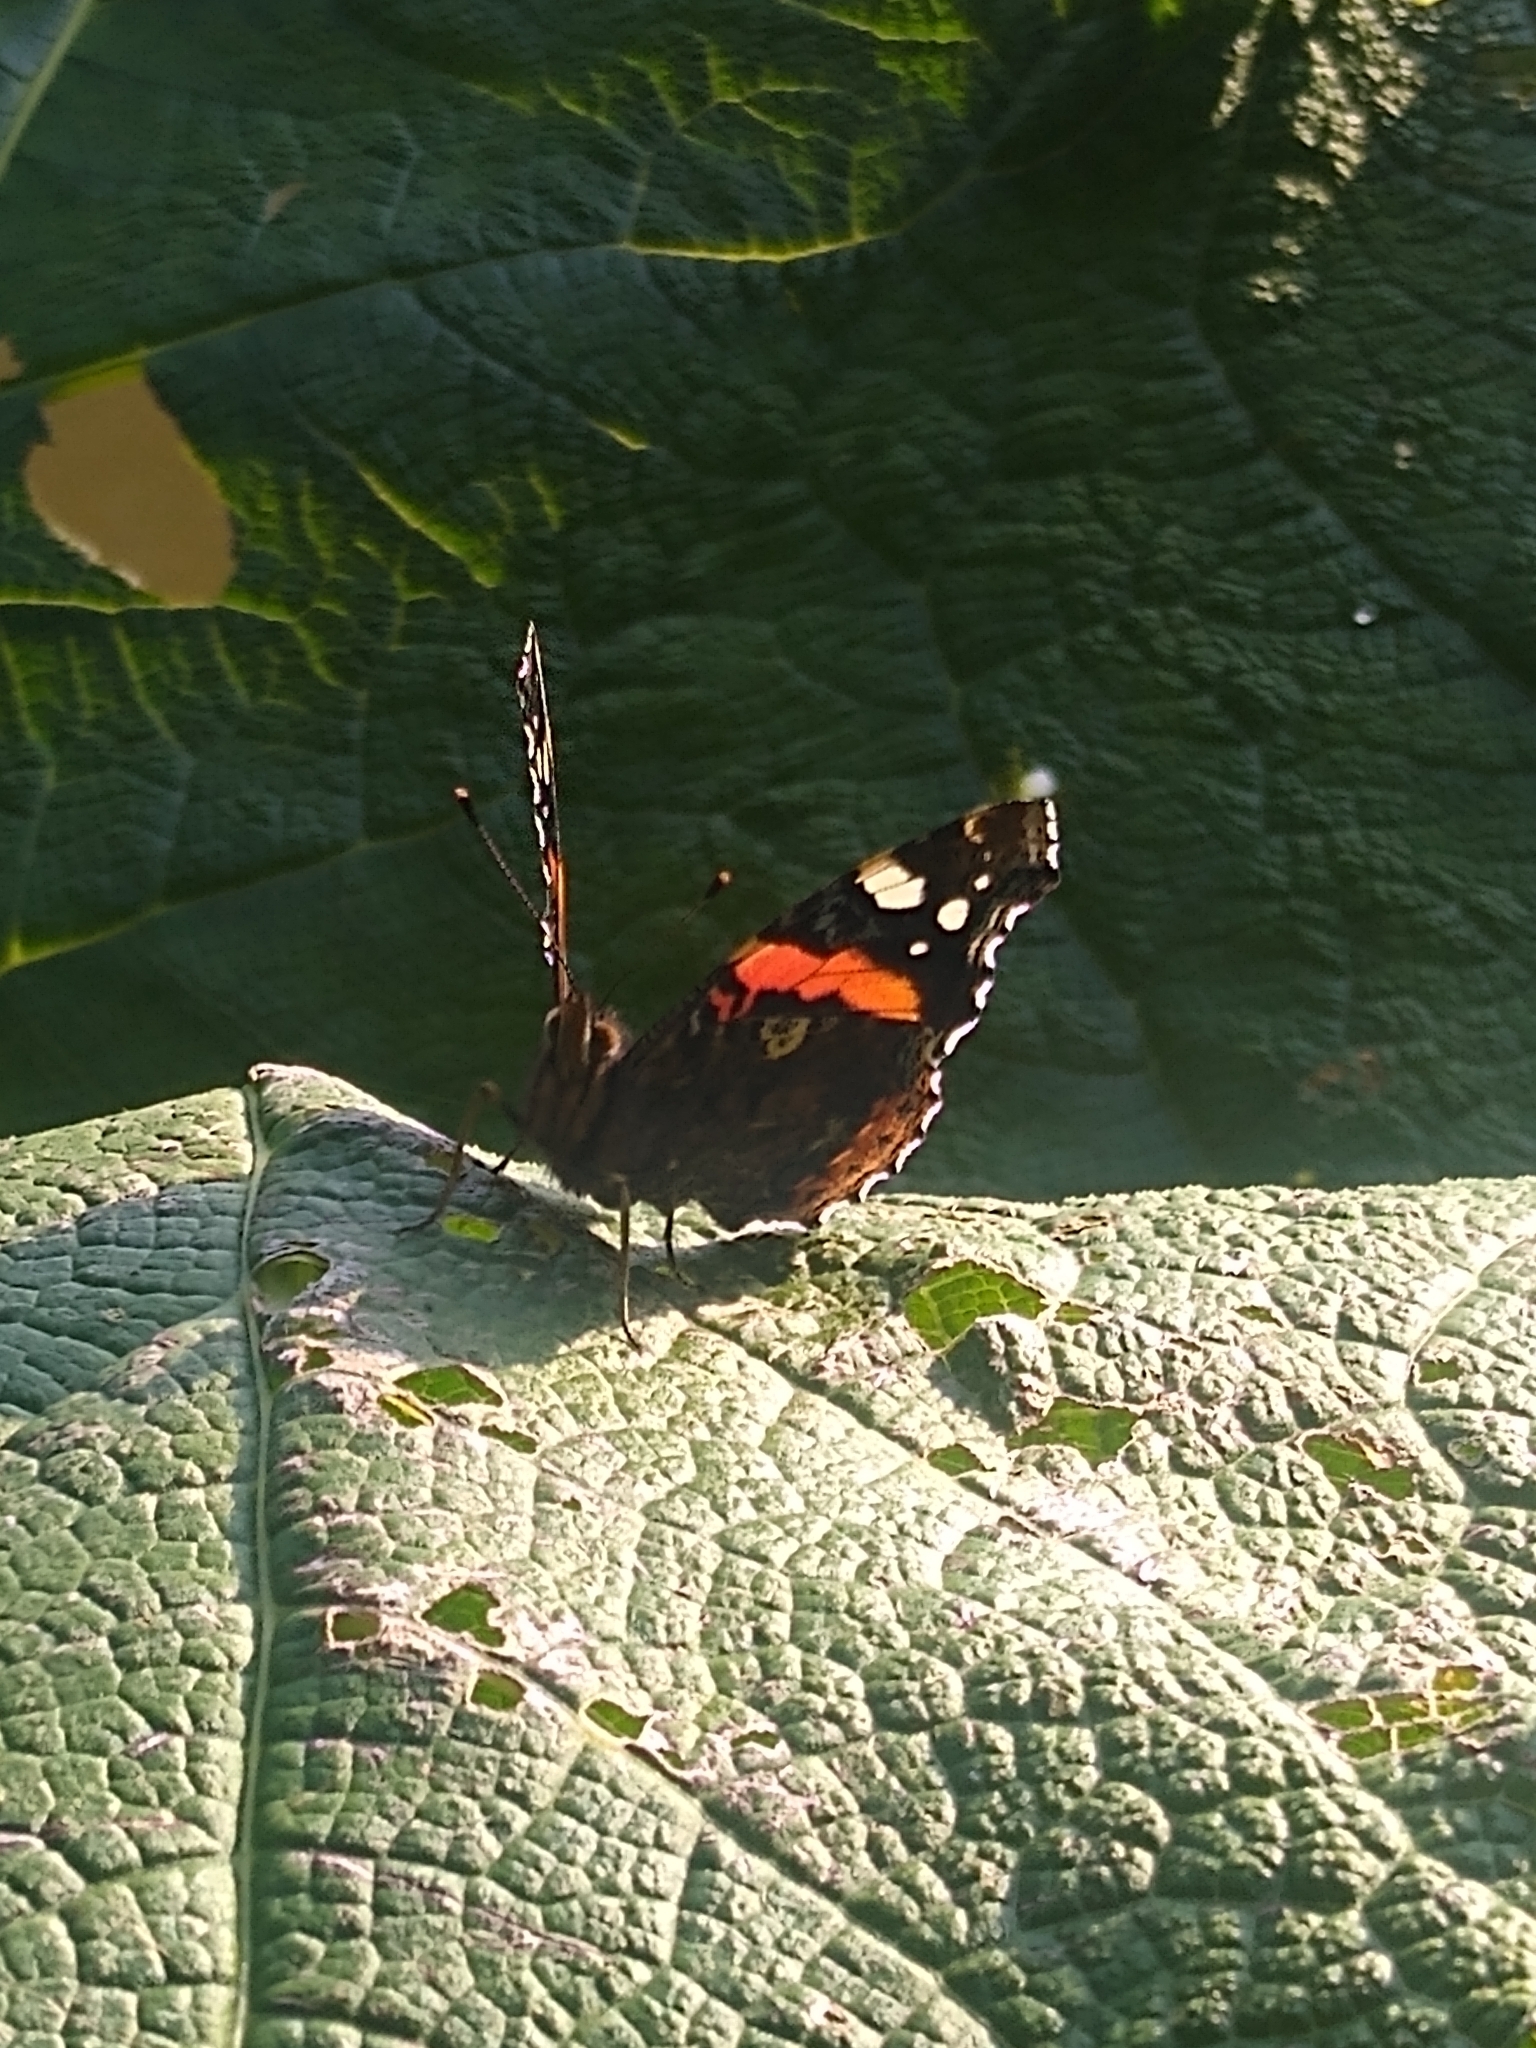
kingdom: Animalia
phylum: Arthropoda
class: Insecta
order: Lepidoptera
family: Nymphalidae
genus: Vanessa
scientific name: Vanessa atalanta
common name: Red admiral
